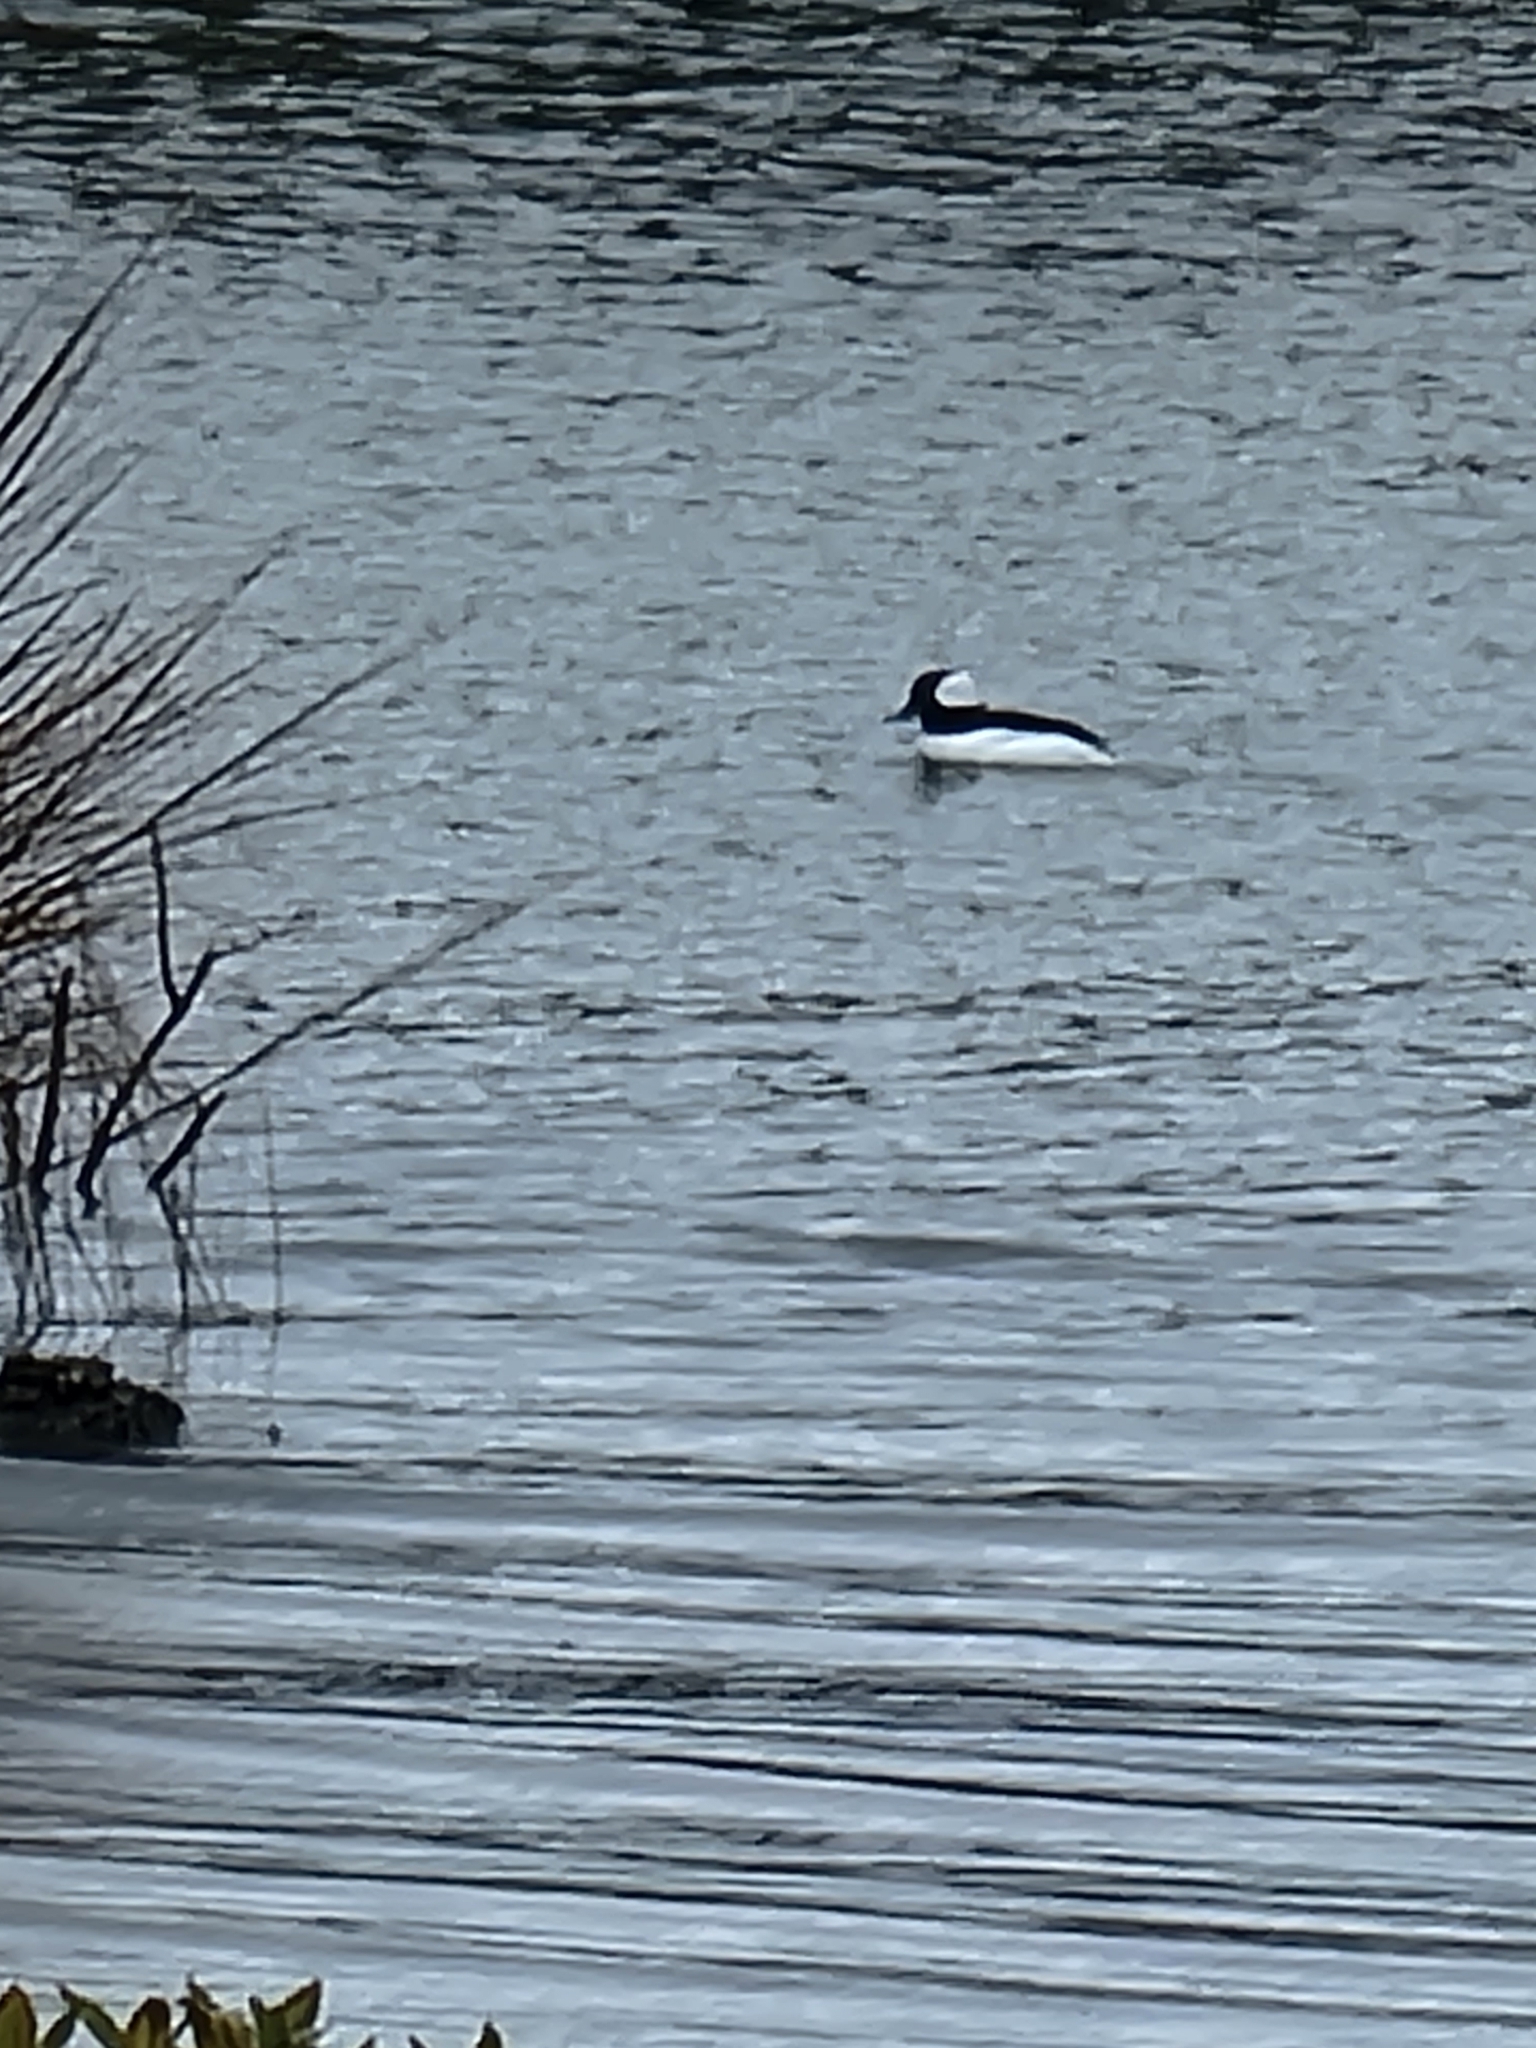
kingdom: Animalia
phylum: Chordata
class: Aves
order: Anseriformes
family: Anatidae
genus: Bucephala
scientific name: Bucephala albeola
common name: Bufflehead
